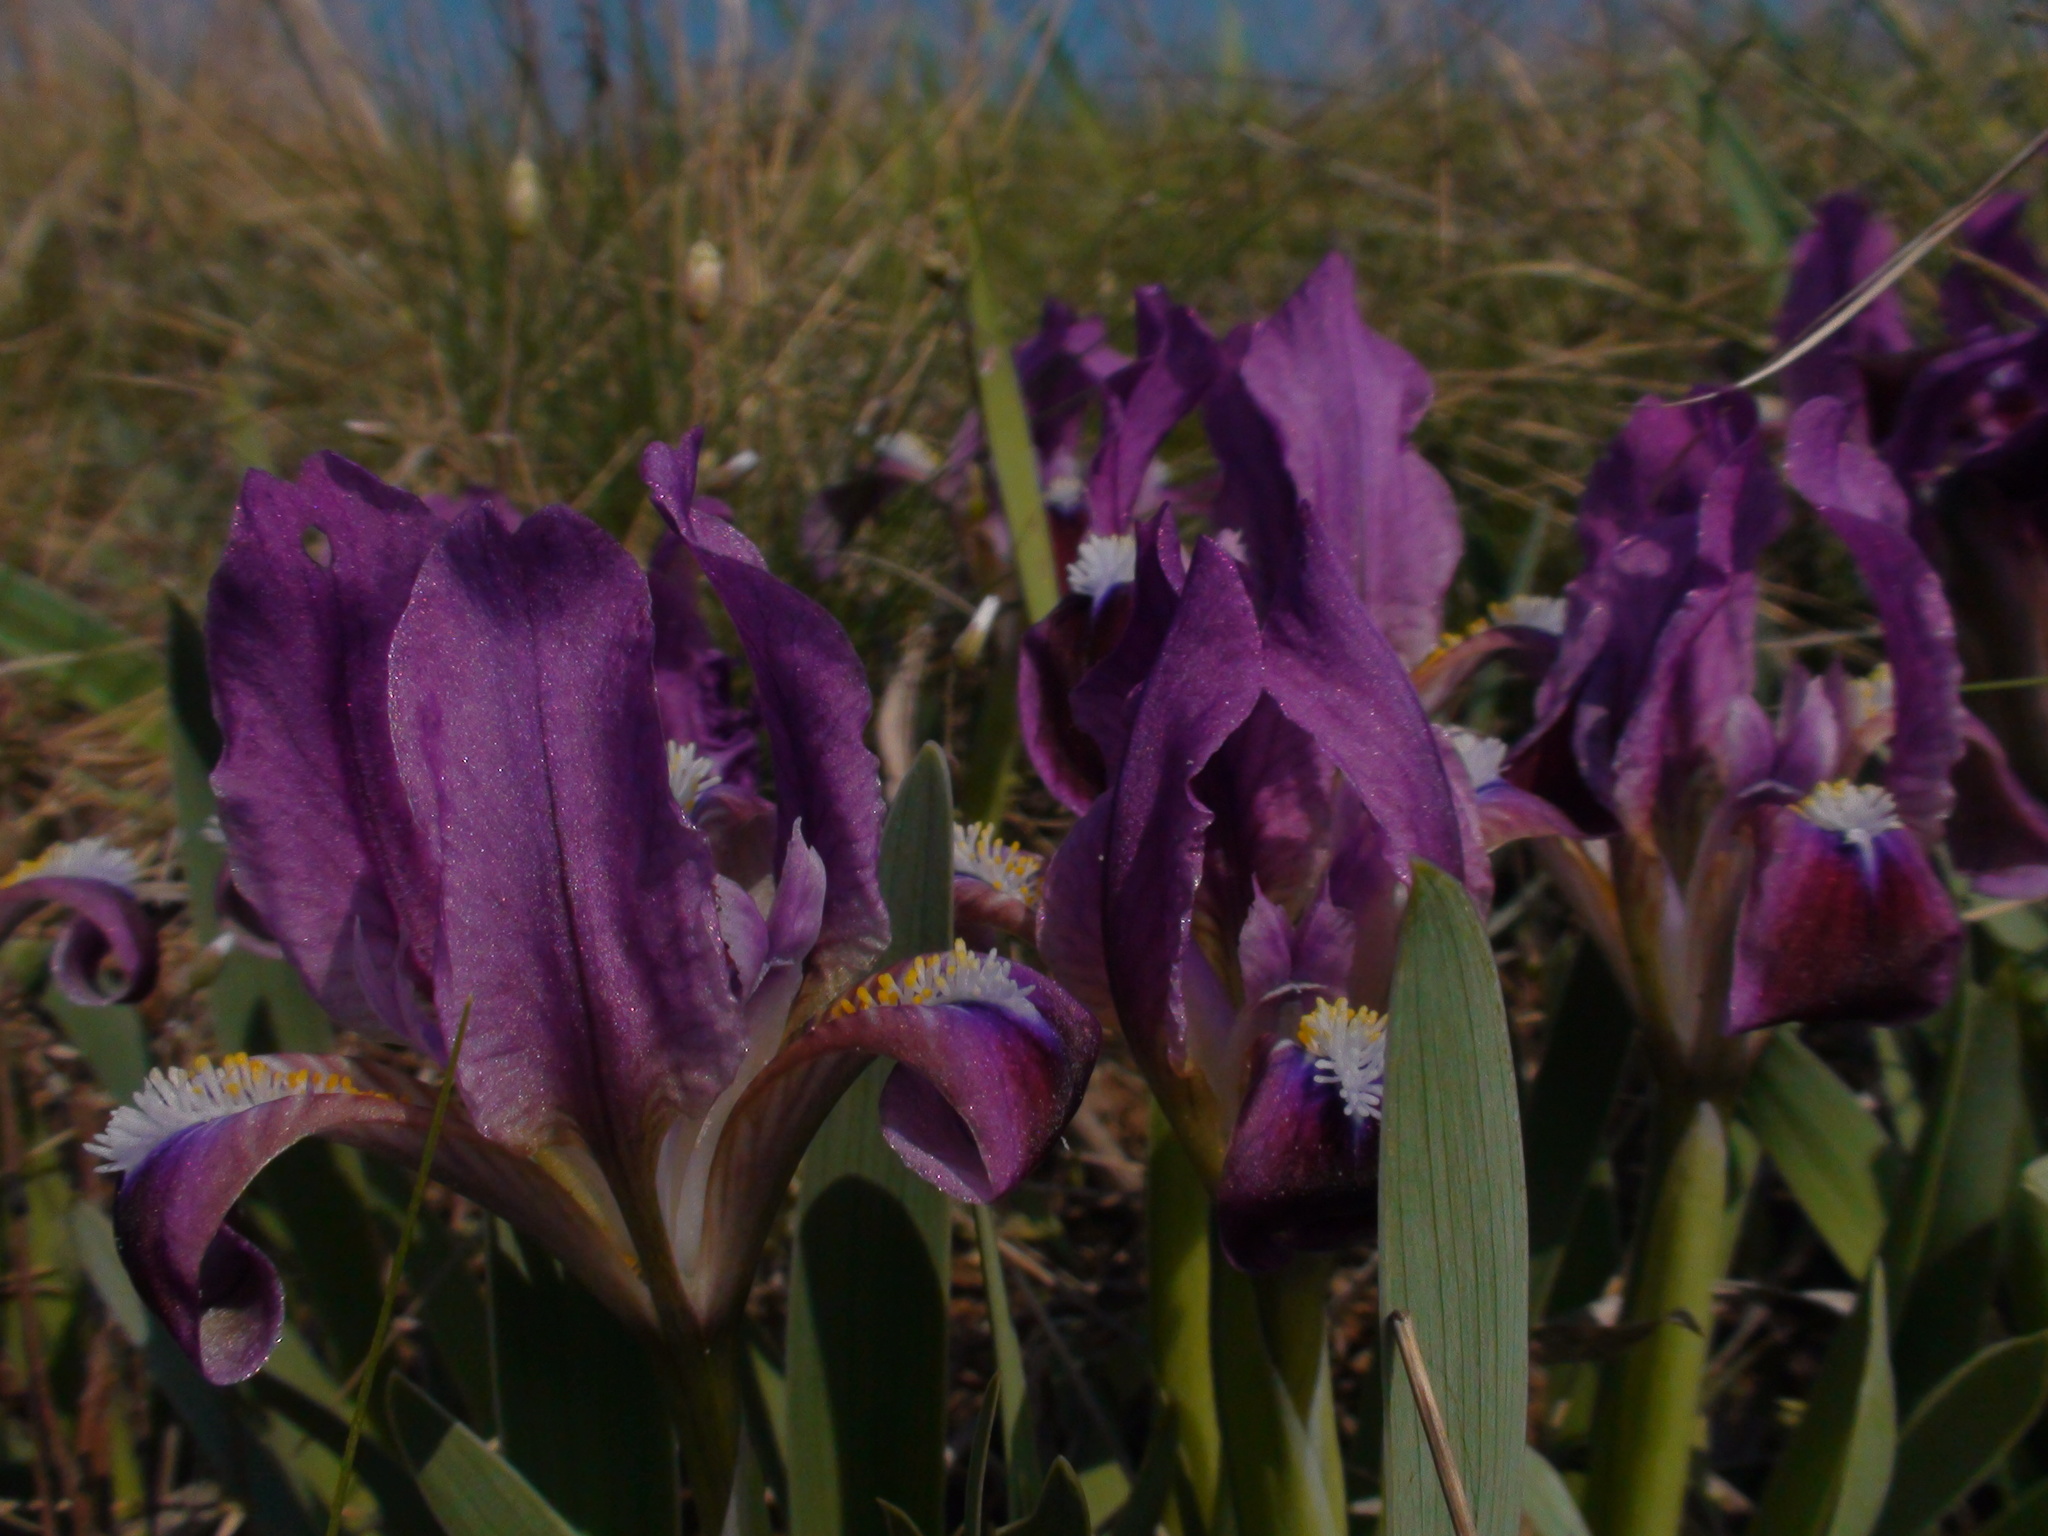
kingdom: Plantae
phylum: Tracheophyta
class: Liliopsida
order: Asparagales
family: Iridaceae
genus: Iris
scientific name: Iris pumila
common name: Dwarf iris
